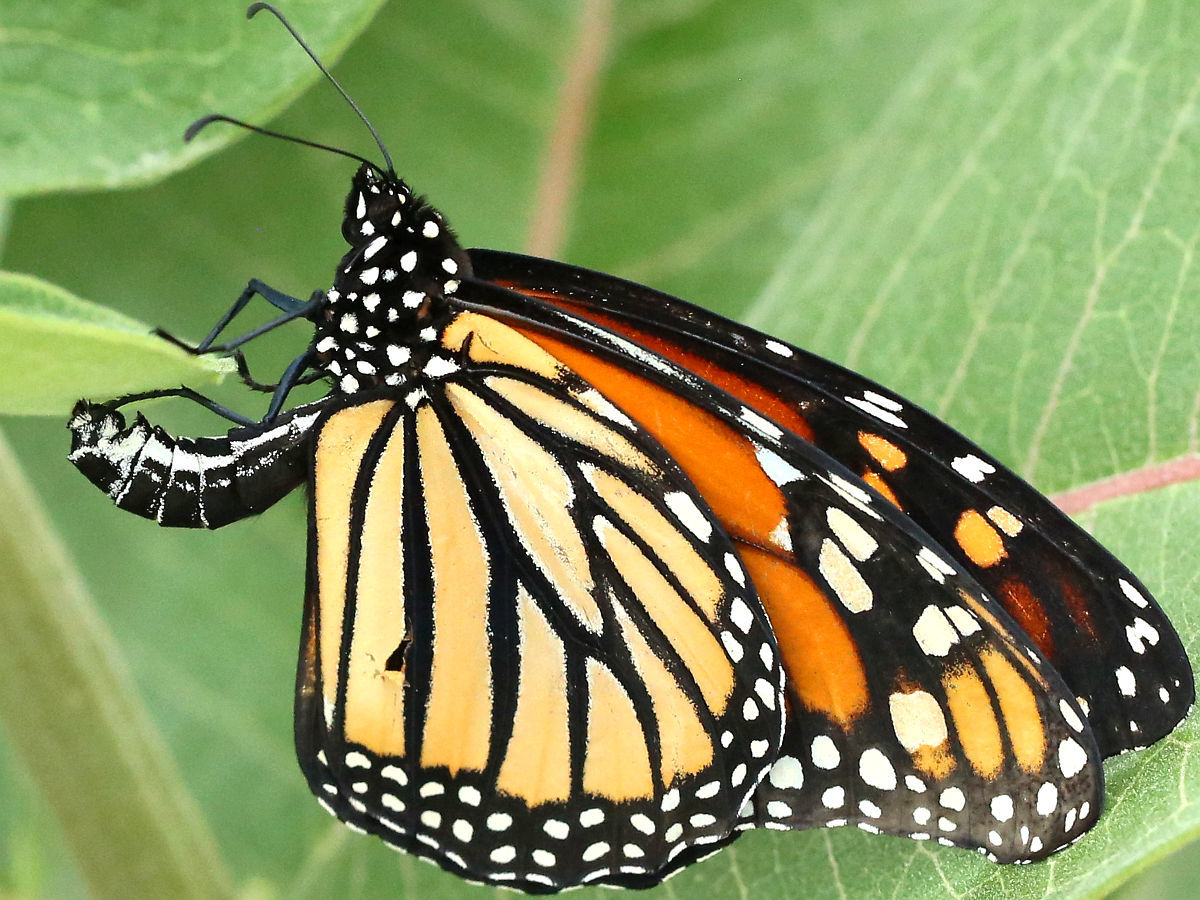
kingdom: Animalia
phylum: Arthropoda
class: Insecta
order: Lepidoptera
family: Nymphalidae
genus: Danaus
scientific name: Danaus plexippus
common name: Monarch
